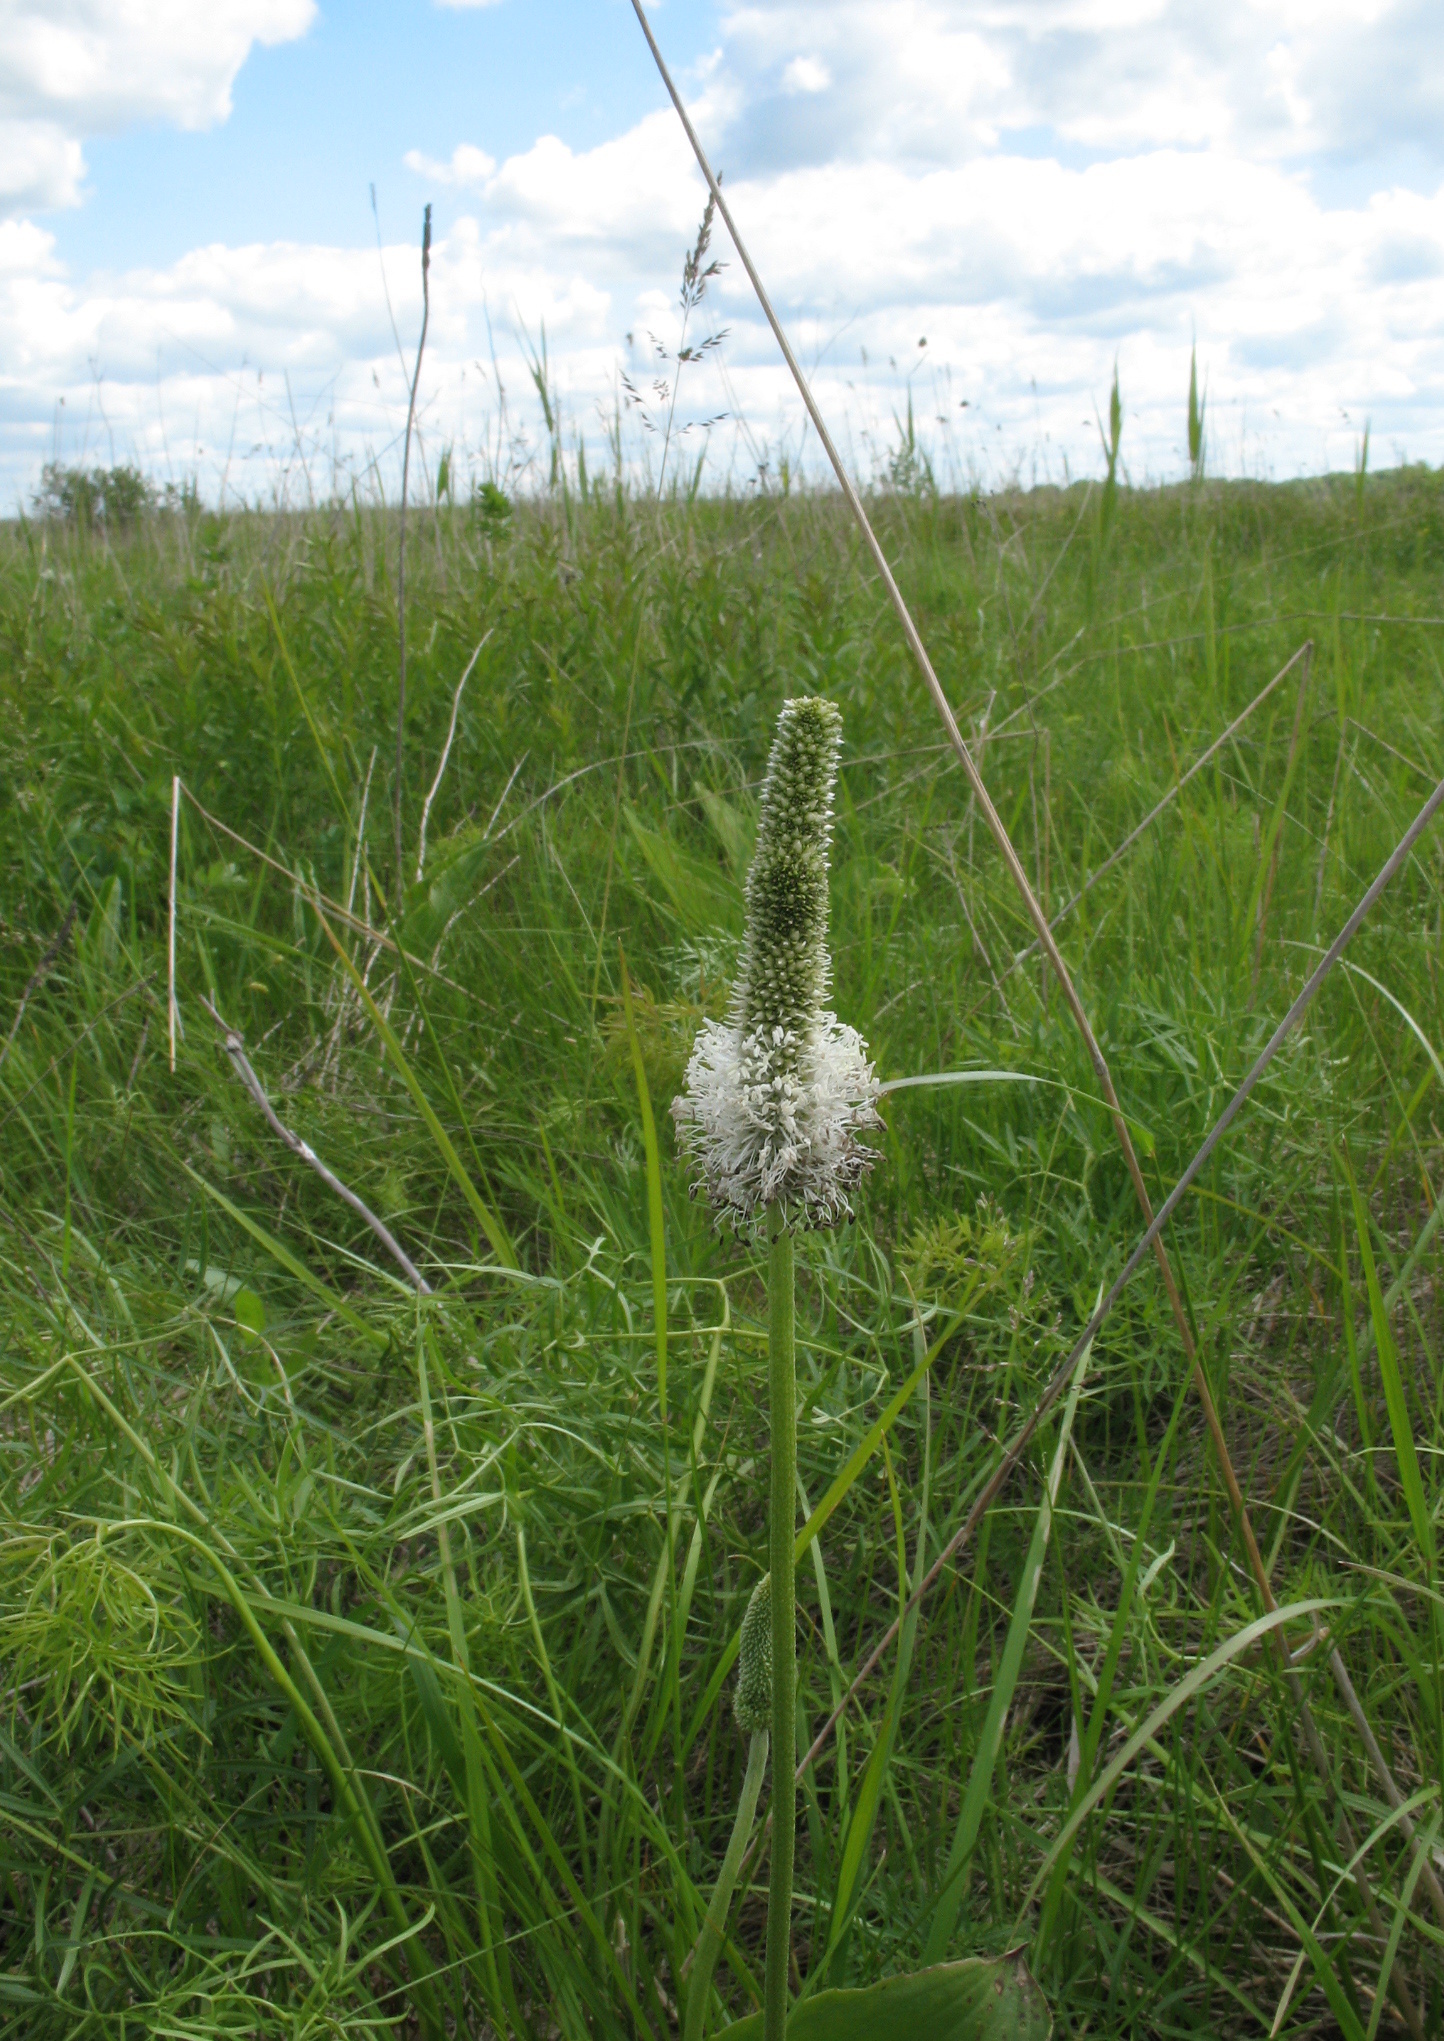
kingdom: Plantae
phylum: Tracheophyta
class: Magnoliopsida
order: Lamiales
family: Plantaginaceae
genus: Plantago
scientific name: Plantago maxima
